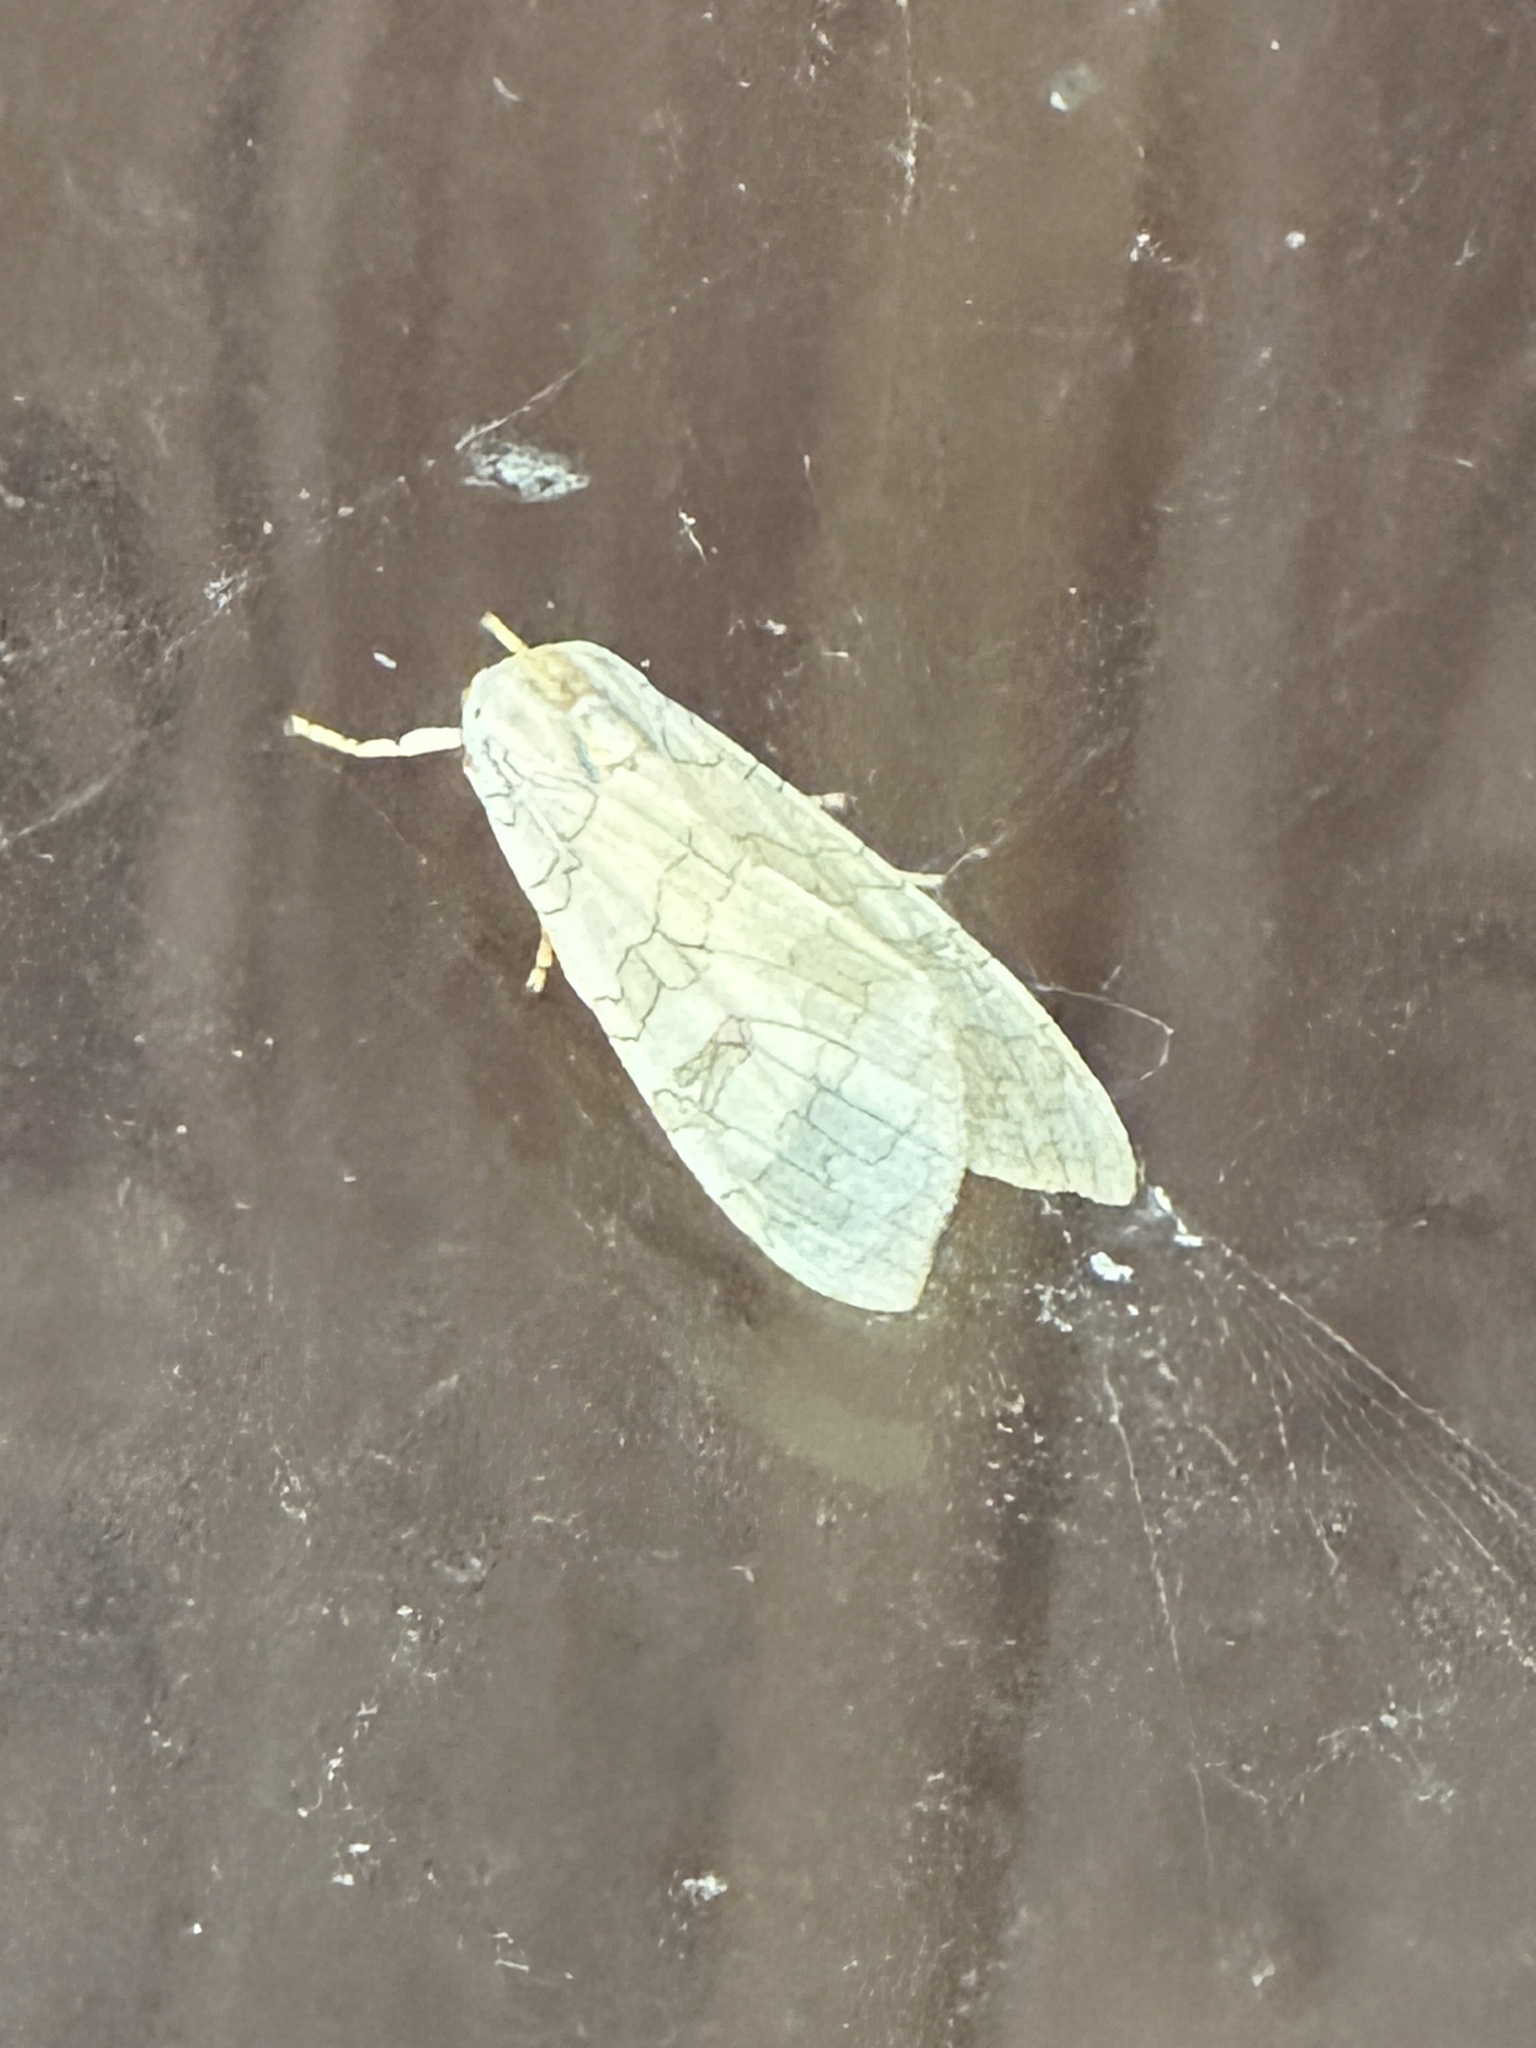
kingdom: Animalia
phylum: Arthropoda
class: Insecta
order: Lepidoptera
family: Erebidae
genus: Halysidota
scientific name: Halysidota
